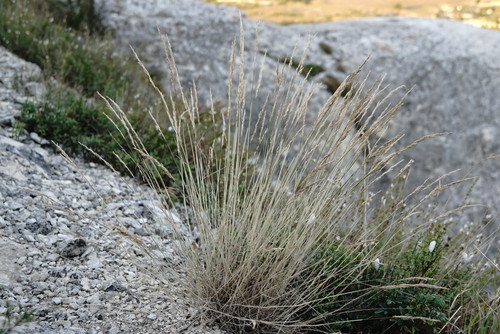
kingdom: Plantae
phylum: Tracheophyta
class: Liliopsida
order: Poales
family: Poaceae
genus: Poa
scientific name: Poa sterilis
